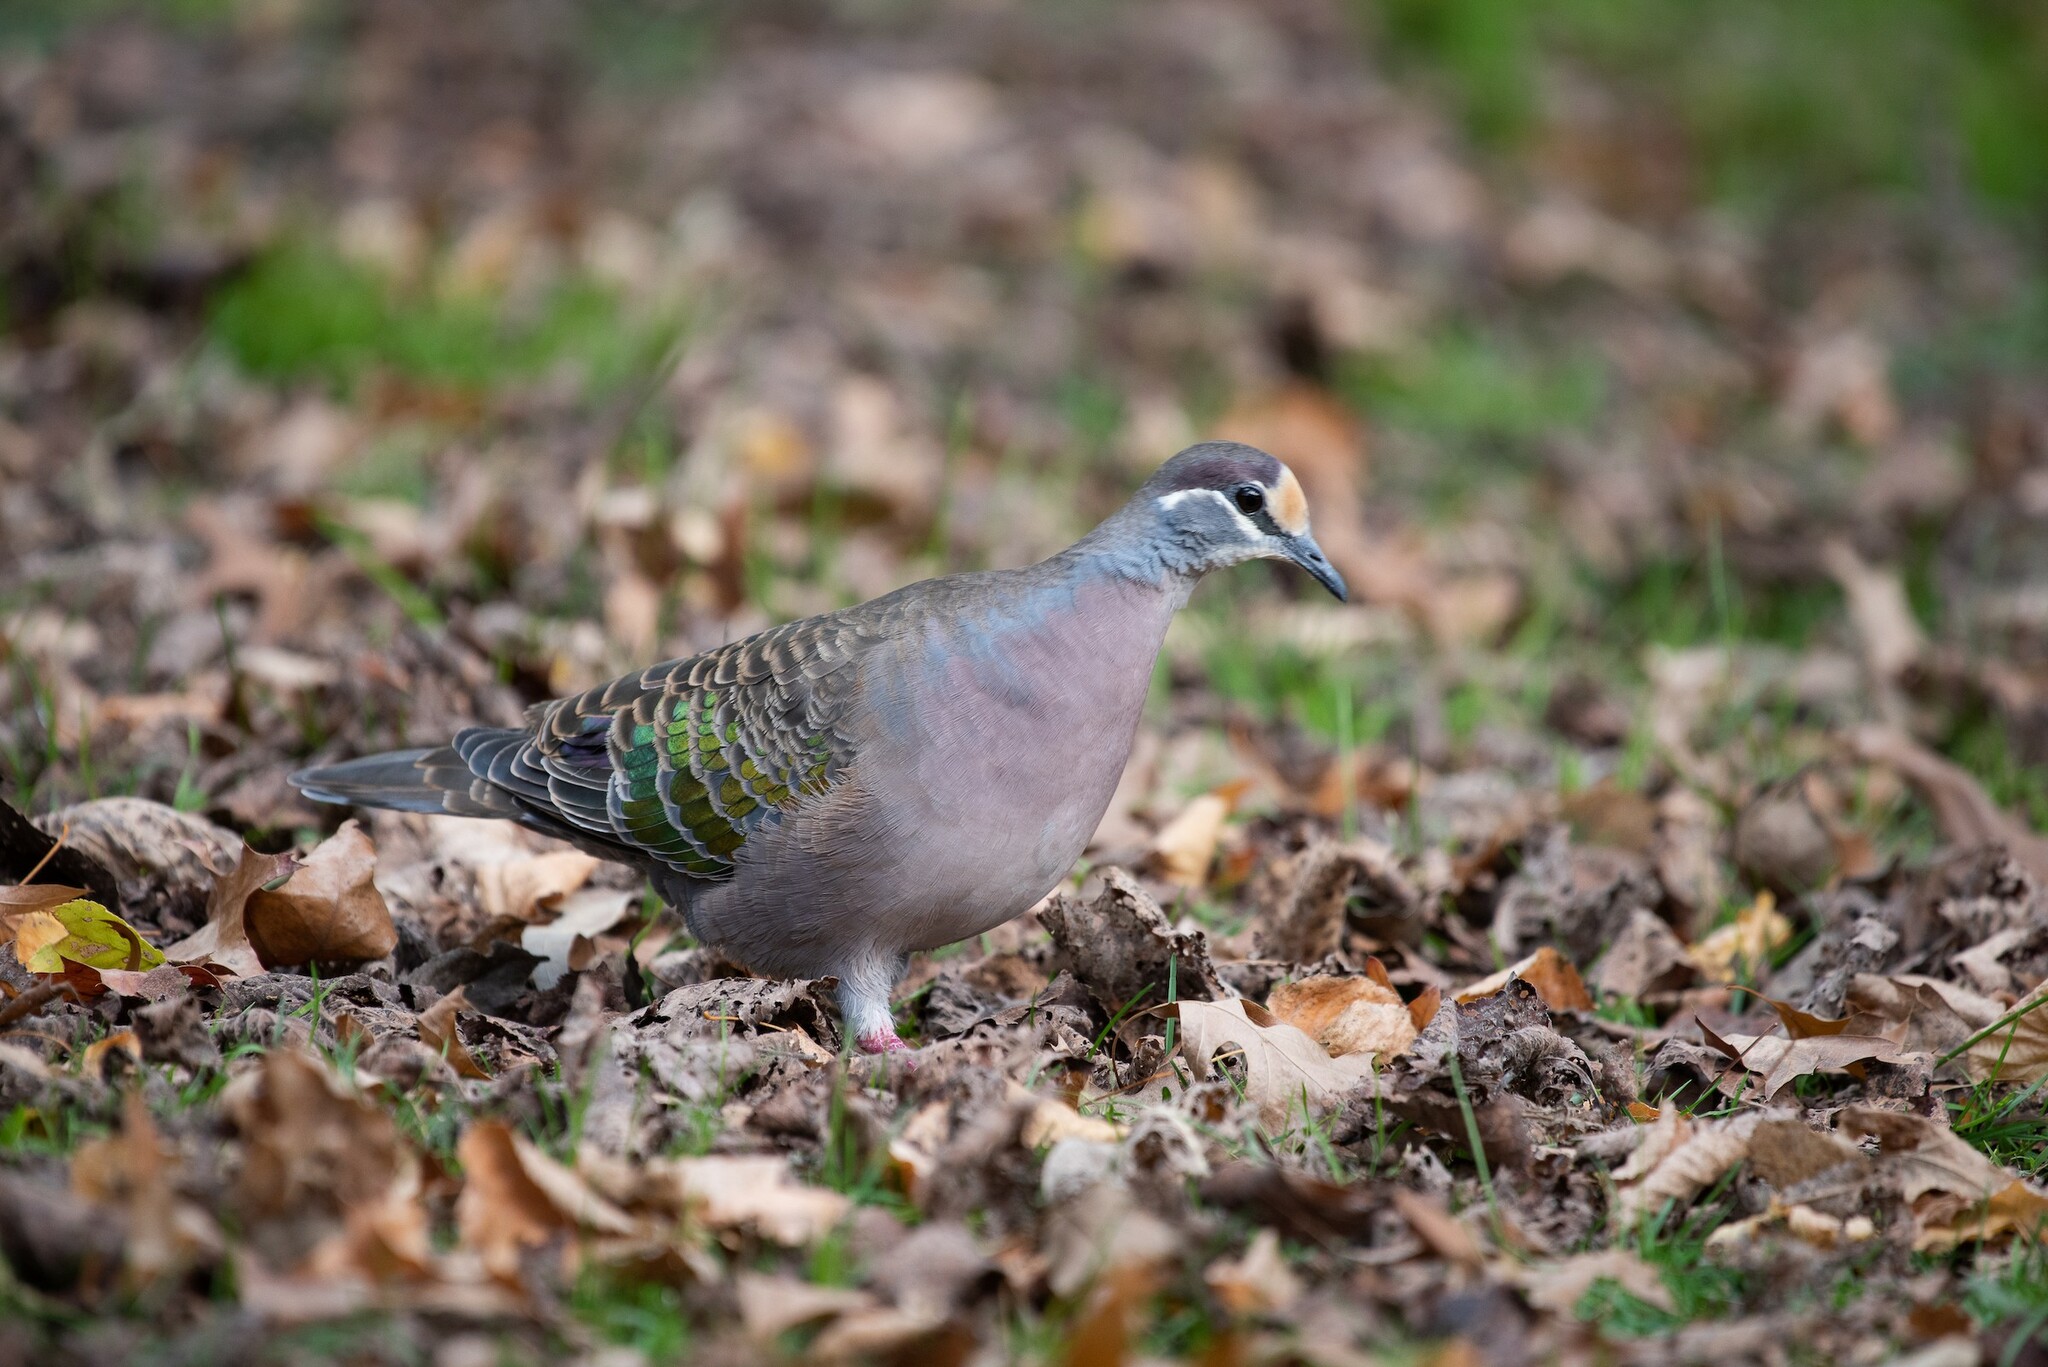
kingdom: Animalia
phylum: Chordata
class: Aves
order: Columbiformes
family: Columbidae
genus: Phaps
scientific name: Phaps chalcoptera
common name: Common bronzewing
